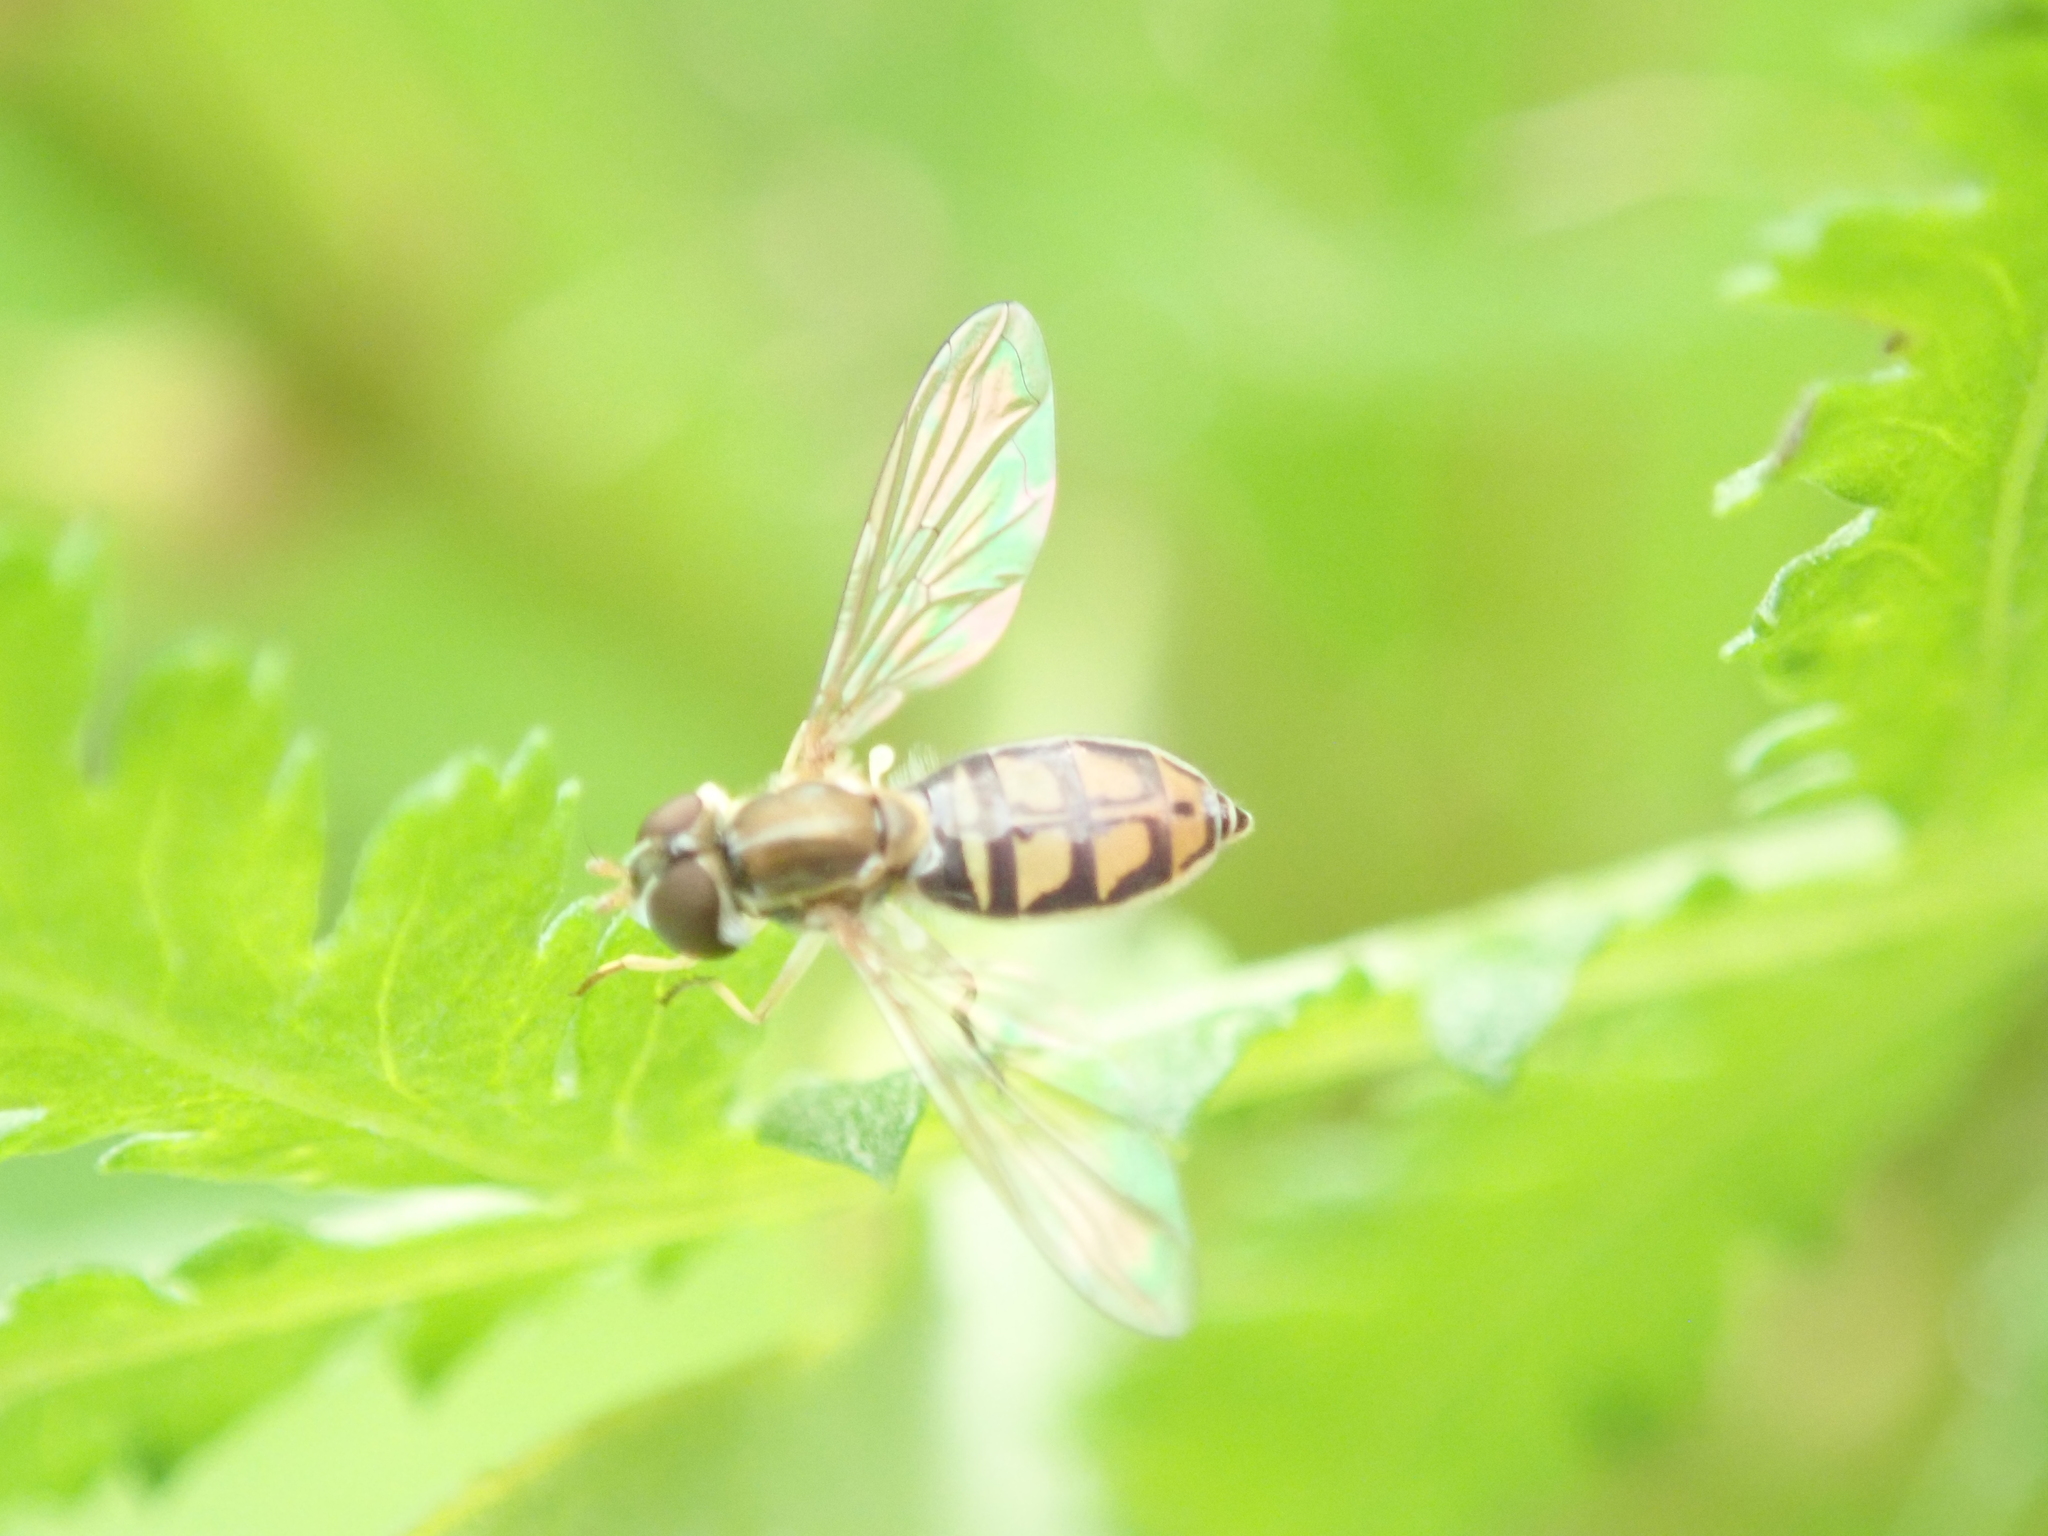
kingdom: Animalia
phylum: Arthropoda
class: Insecta
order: Diptera
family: Syrphidae
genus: Toxomerus
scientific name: Toxomerus marginatus
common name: Syrphid fly
